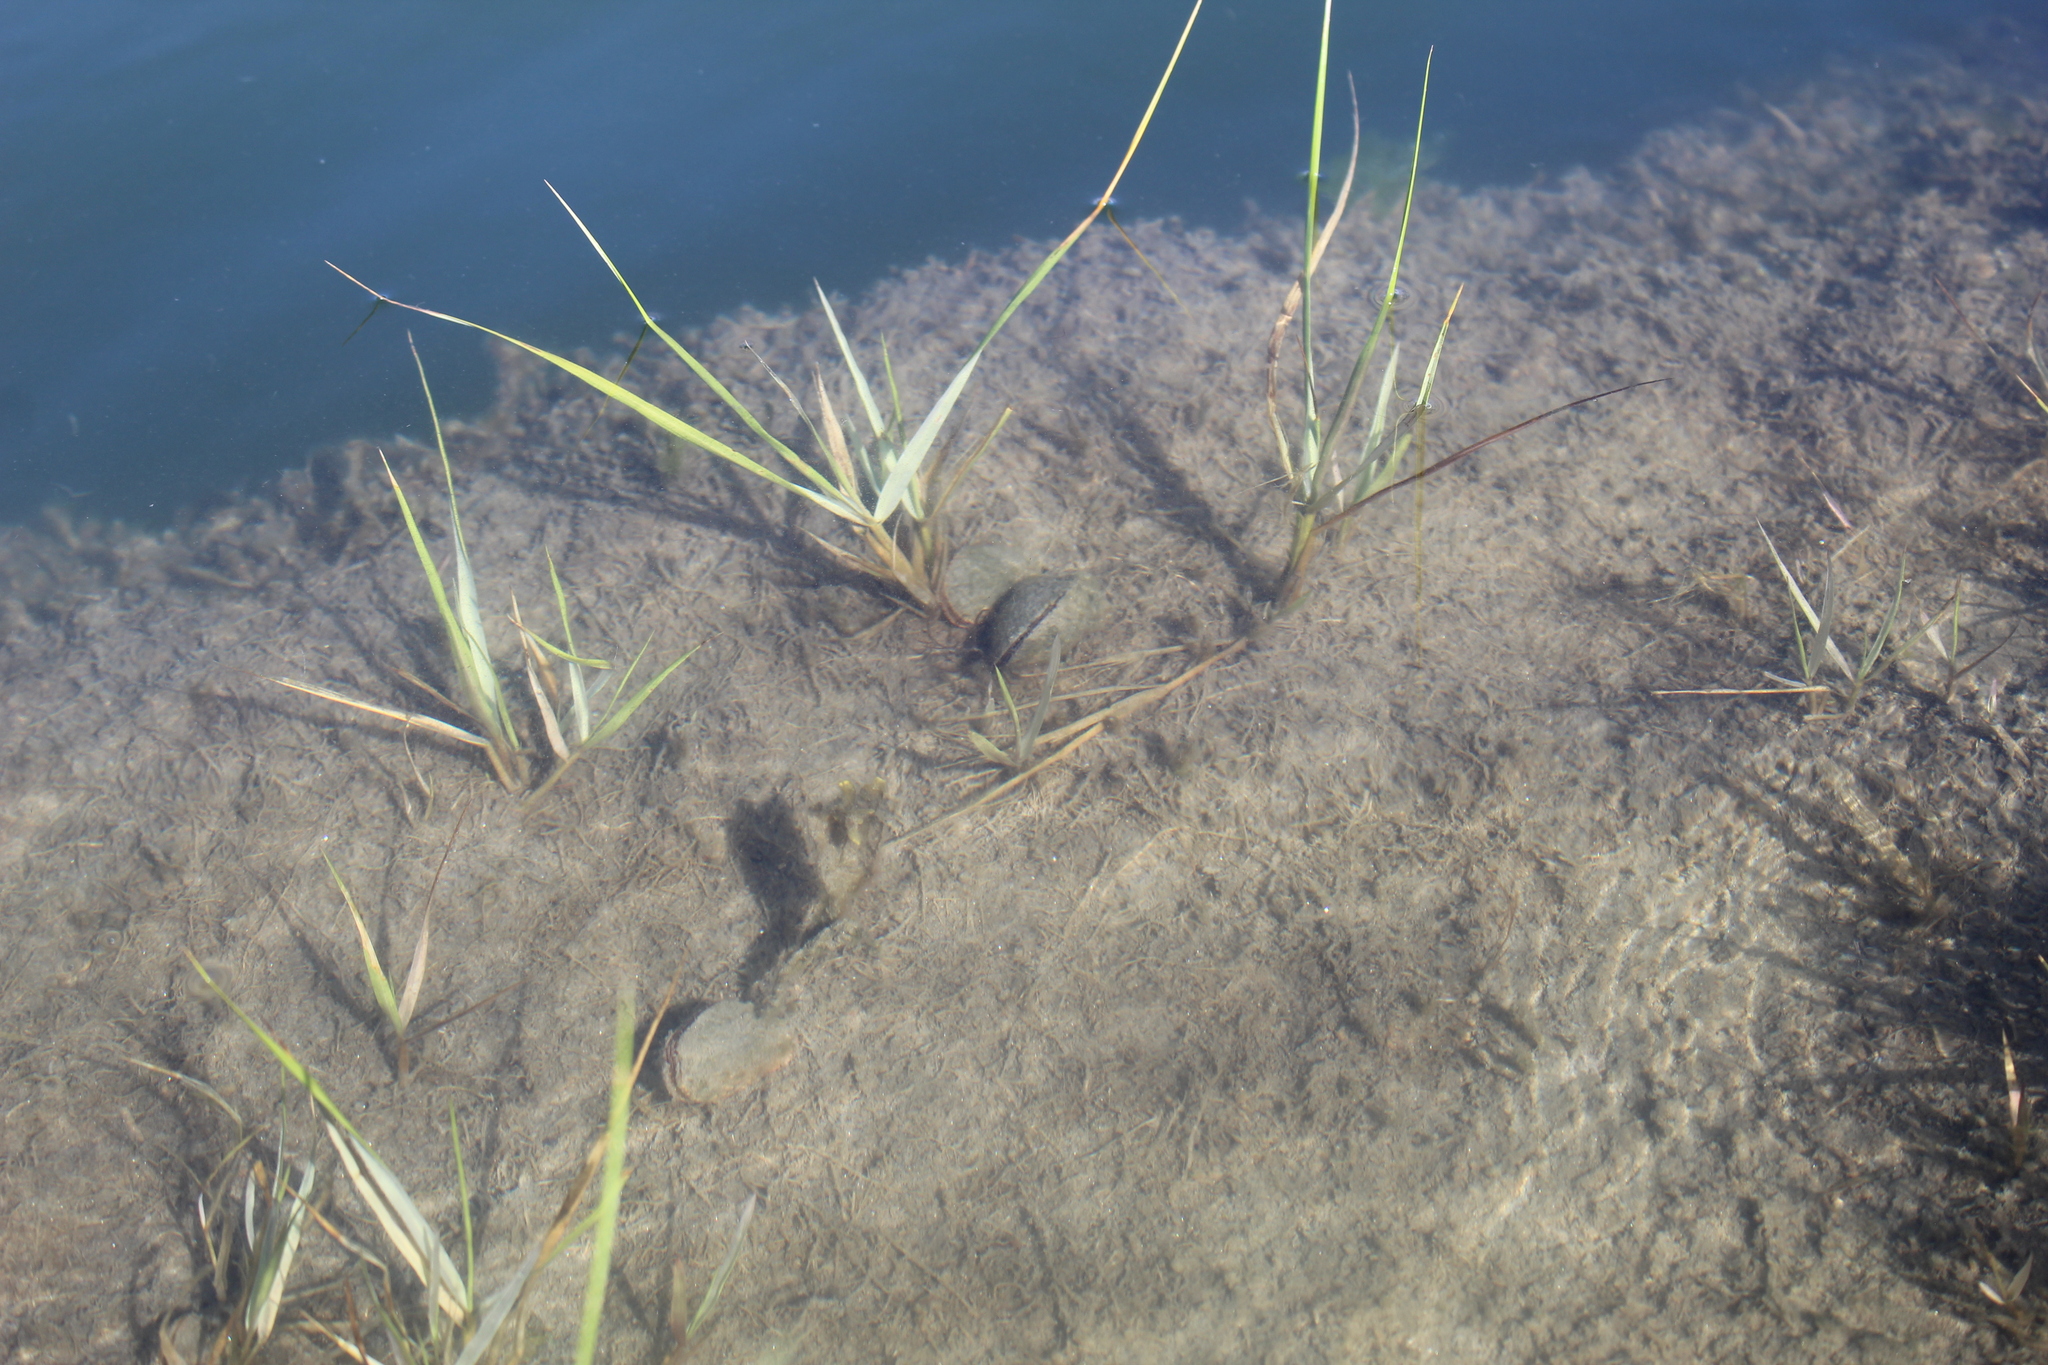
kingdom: Animalia
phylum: Mollusca
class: Bivalvia
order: Mytilida
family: Mytilidae
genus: Geukensia
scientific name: Geukensia demissa
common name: Ribbed mussel
